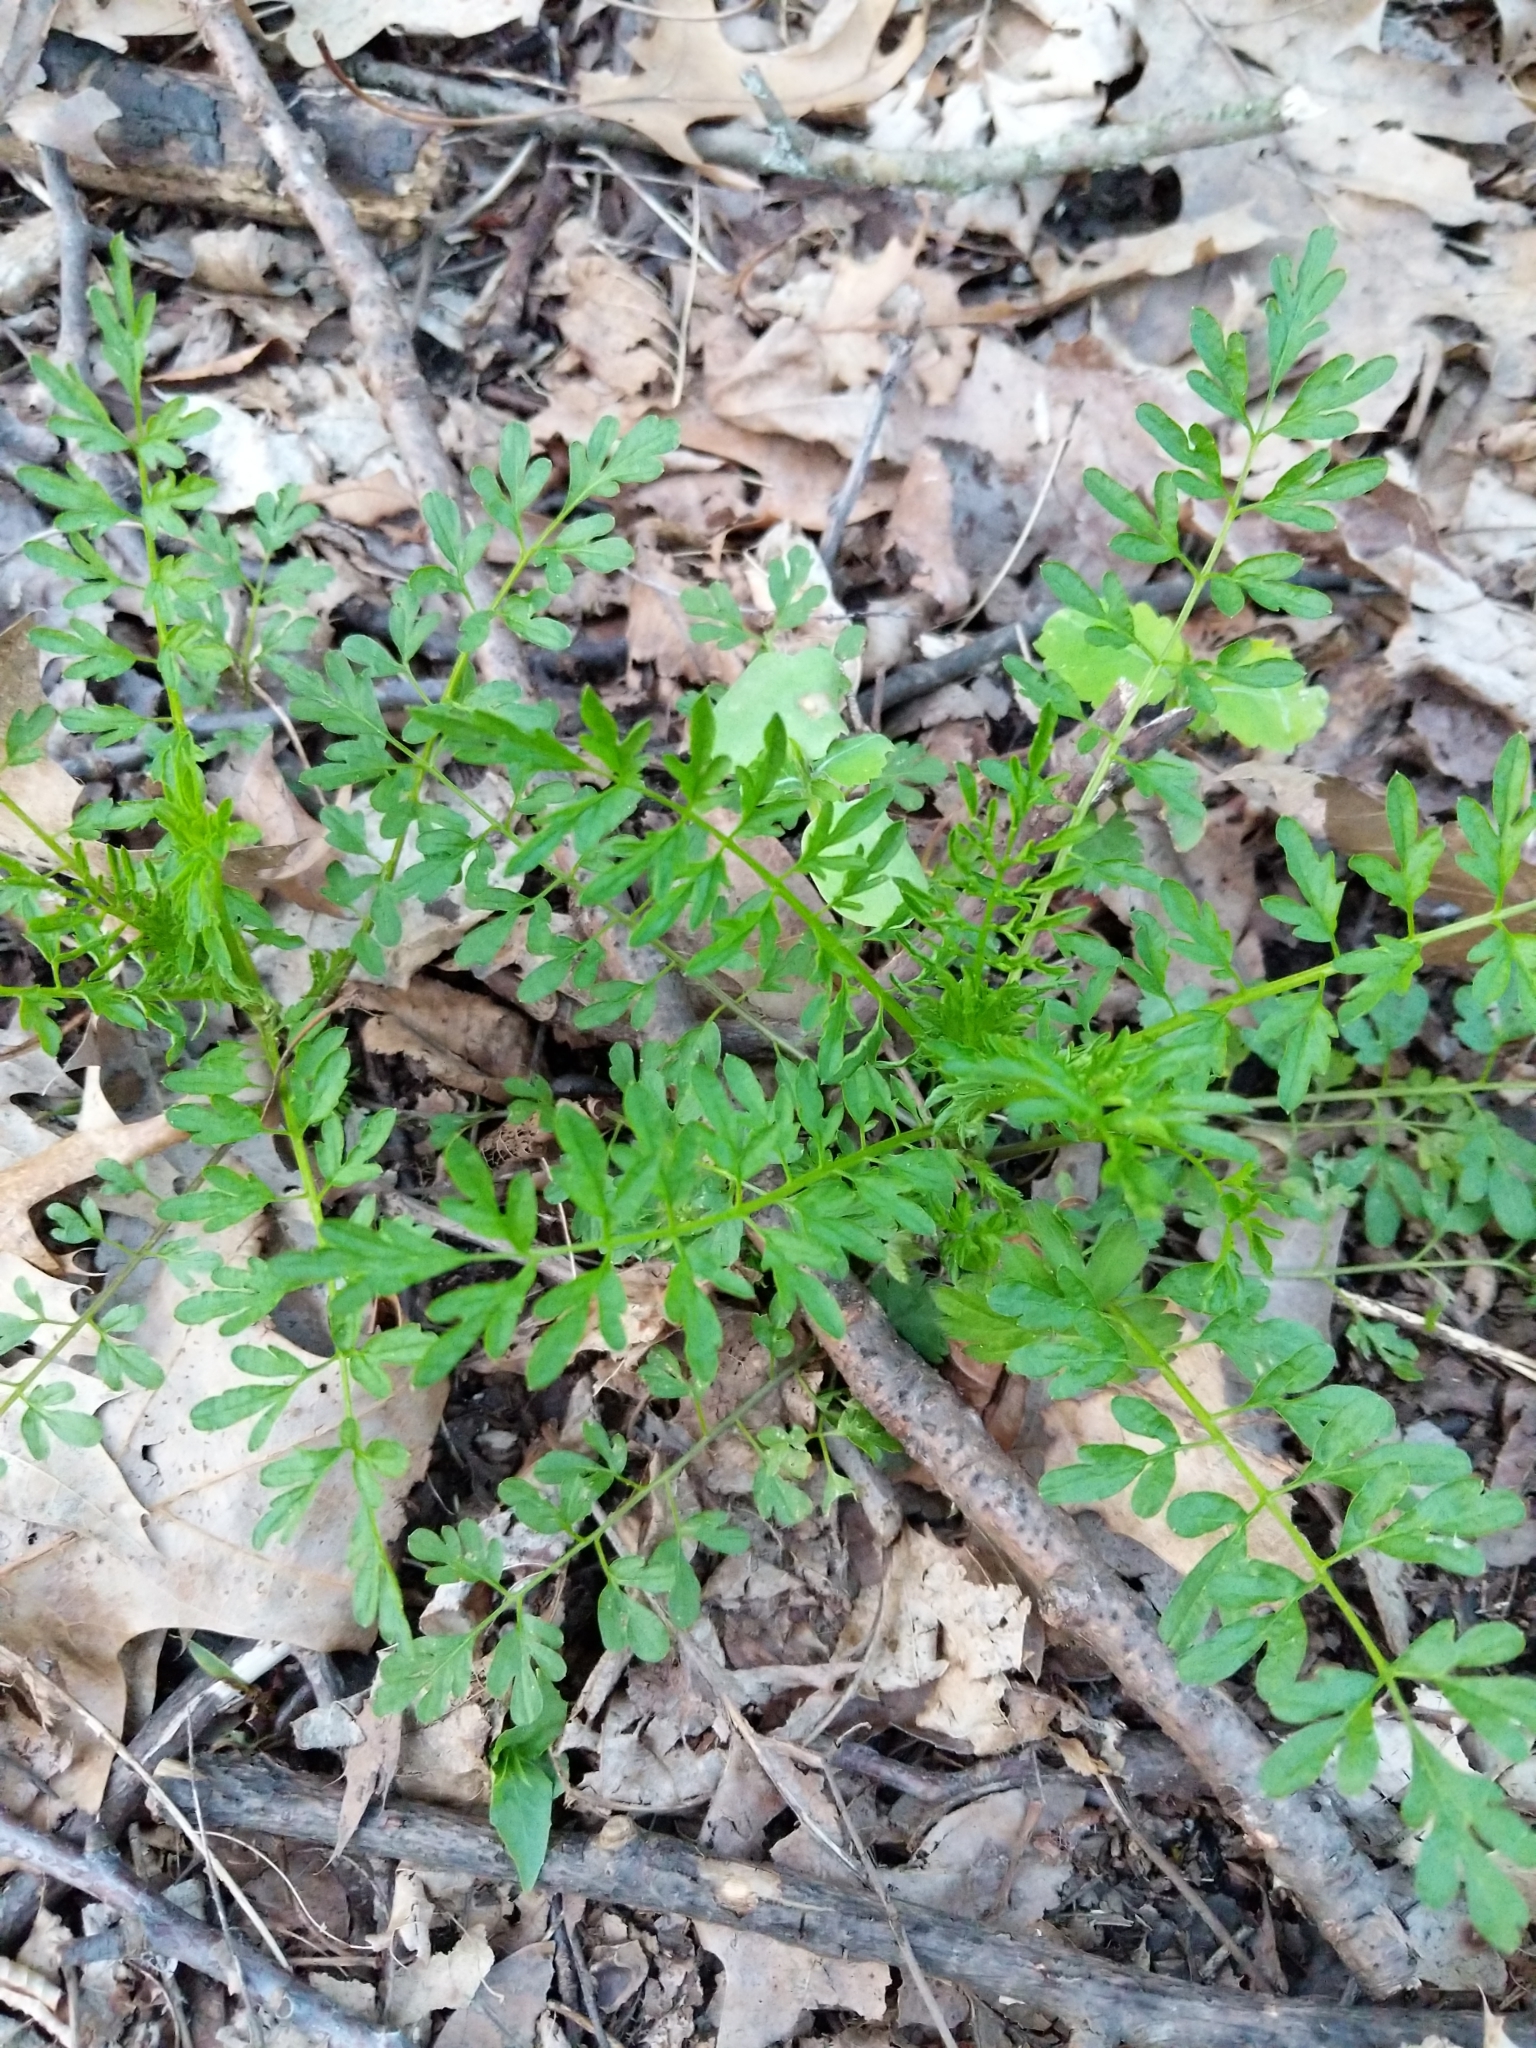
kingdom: Plantae
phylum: Tracheophyta
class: Magnoliopsida
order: Brassicales
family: Brassicaceae
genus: Cardamine
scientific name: Cardamine impatiens
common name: Narrow-leaved bitter-cress
